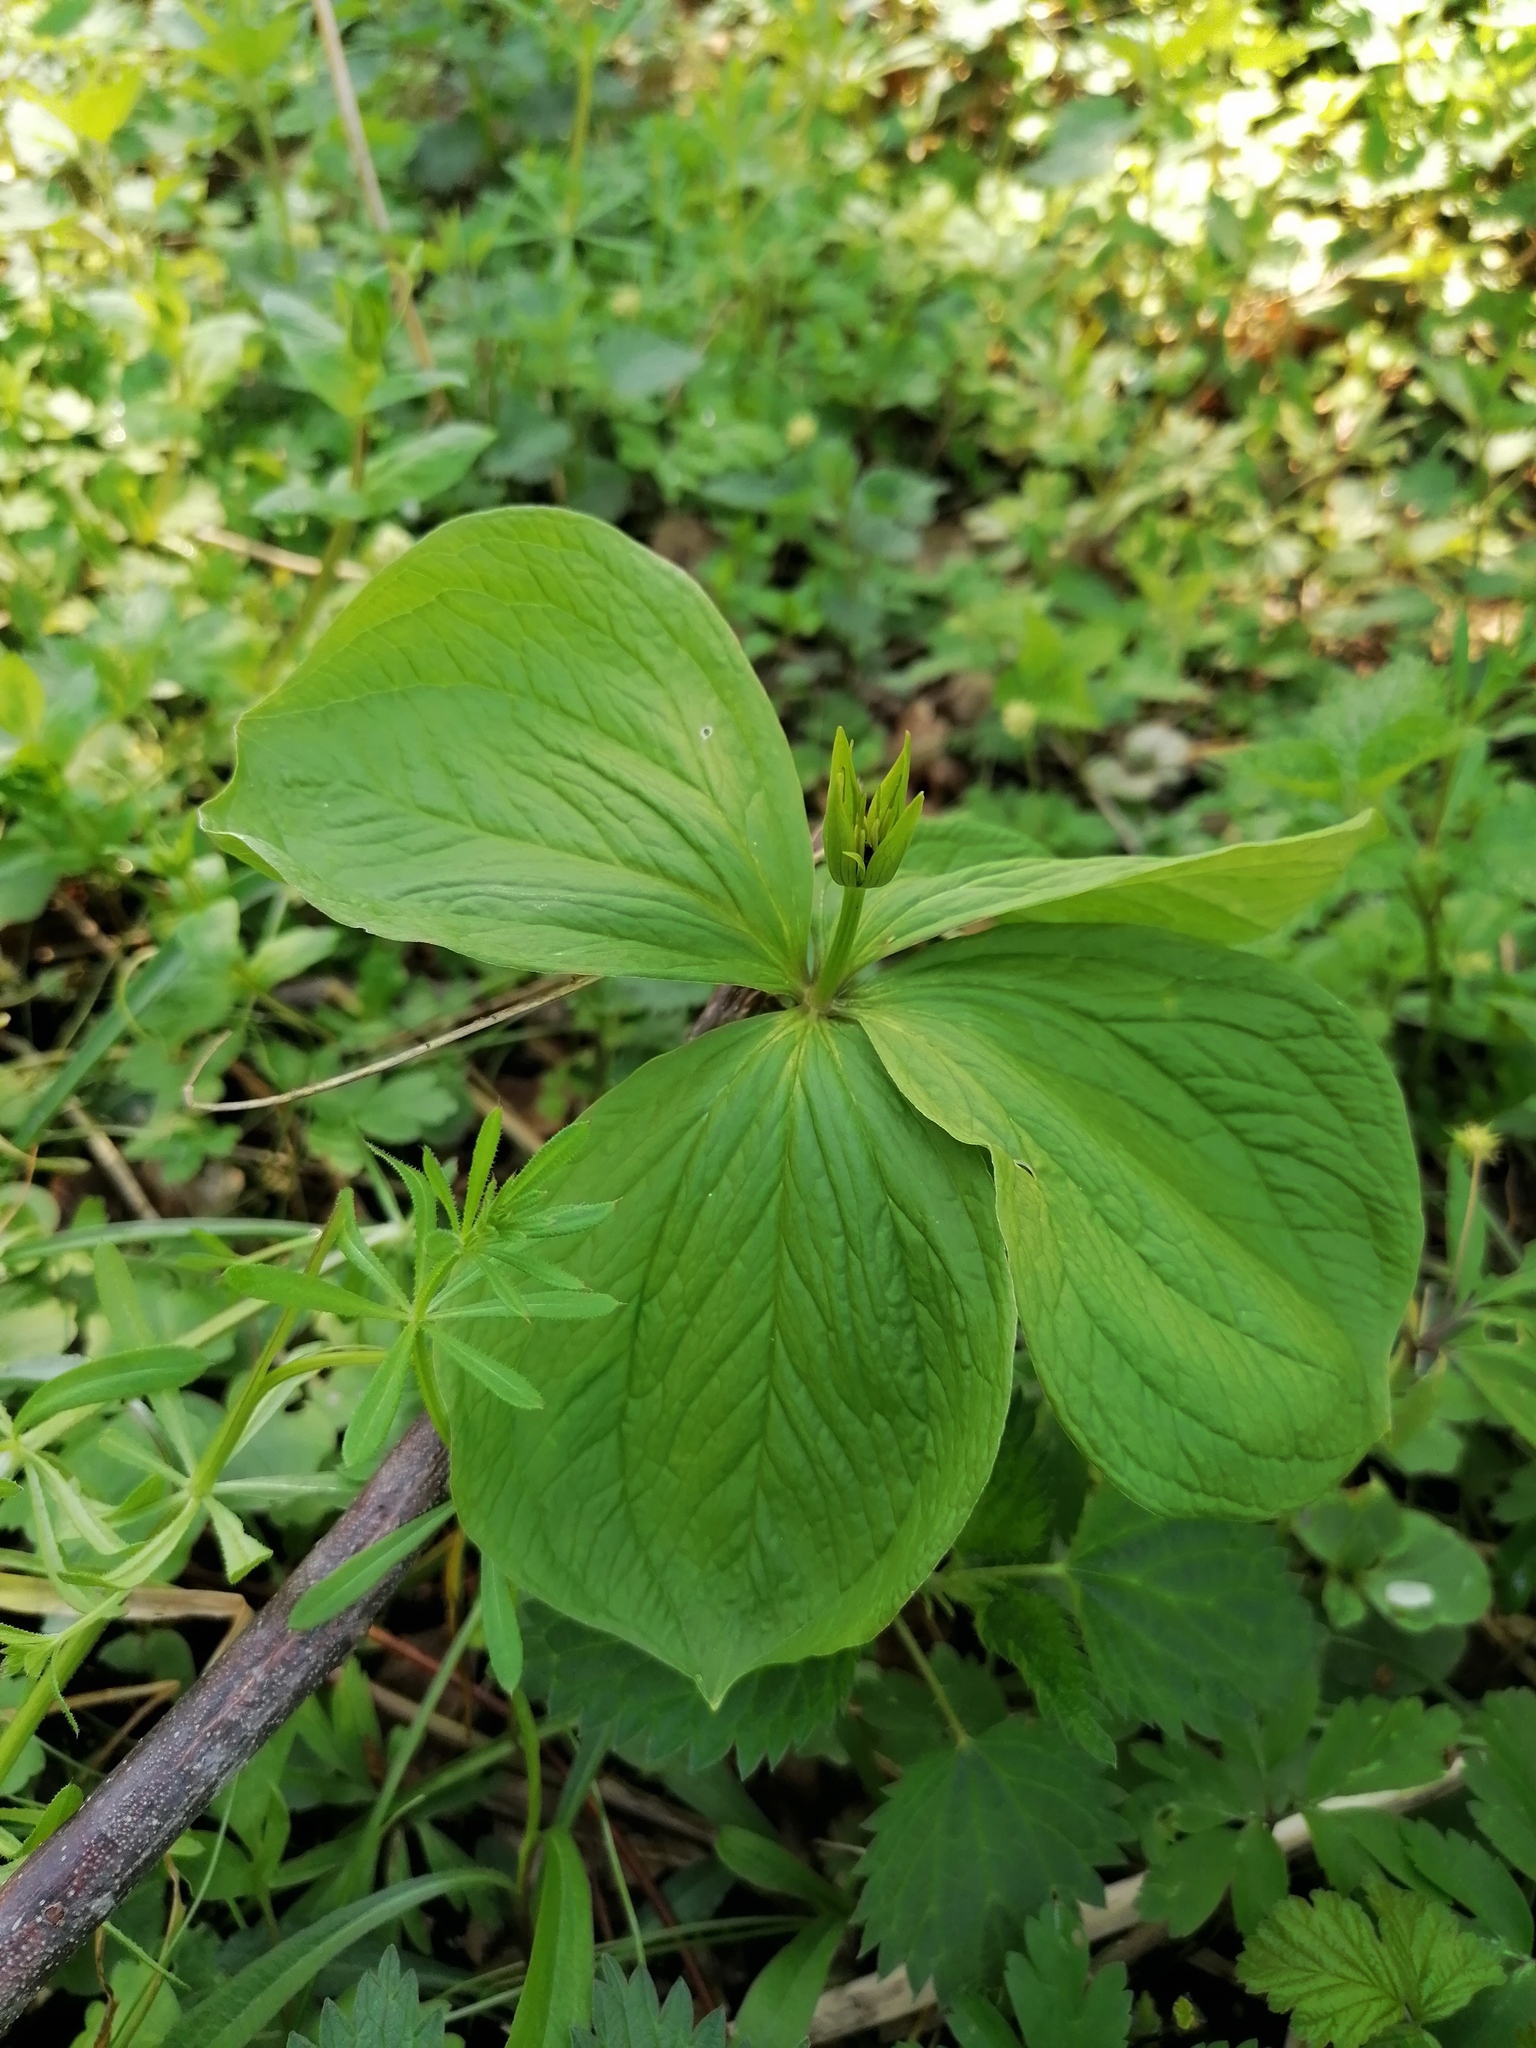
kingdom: Plantae
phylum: Tracheophyta
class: Liliopsida
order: Liliales
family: Melanthiaceae
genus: Paris
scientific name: Paris quadrifolia
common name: Herb-paris
